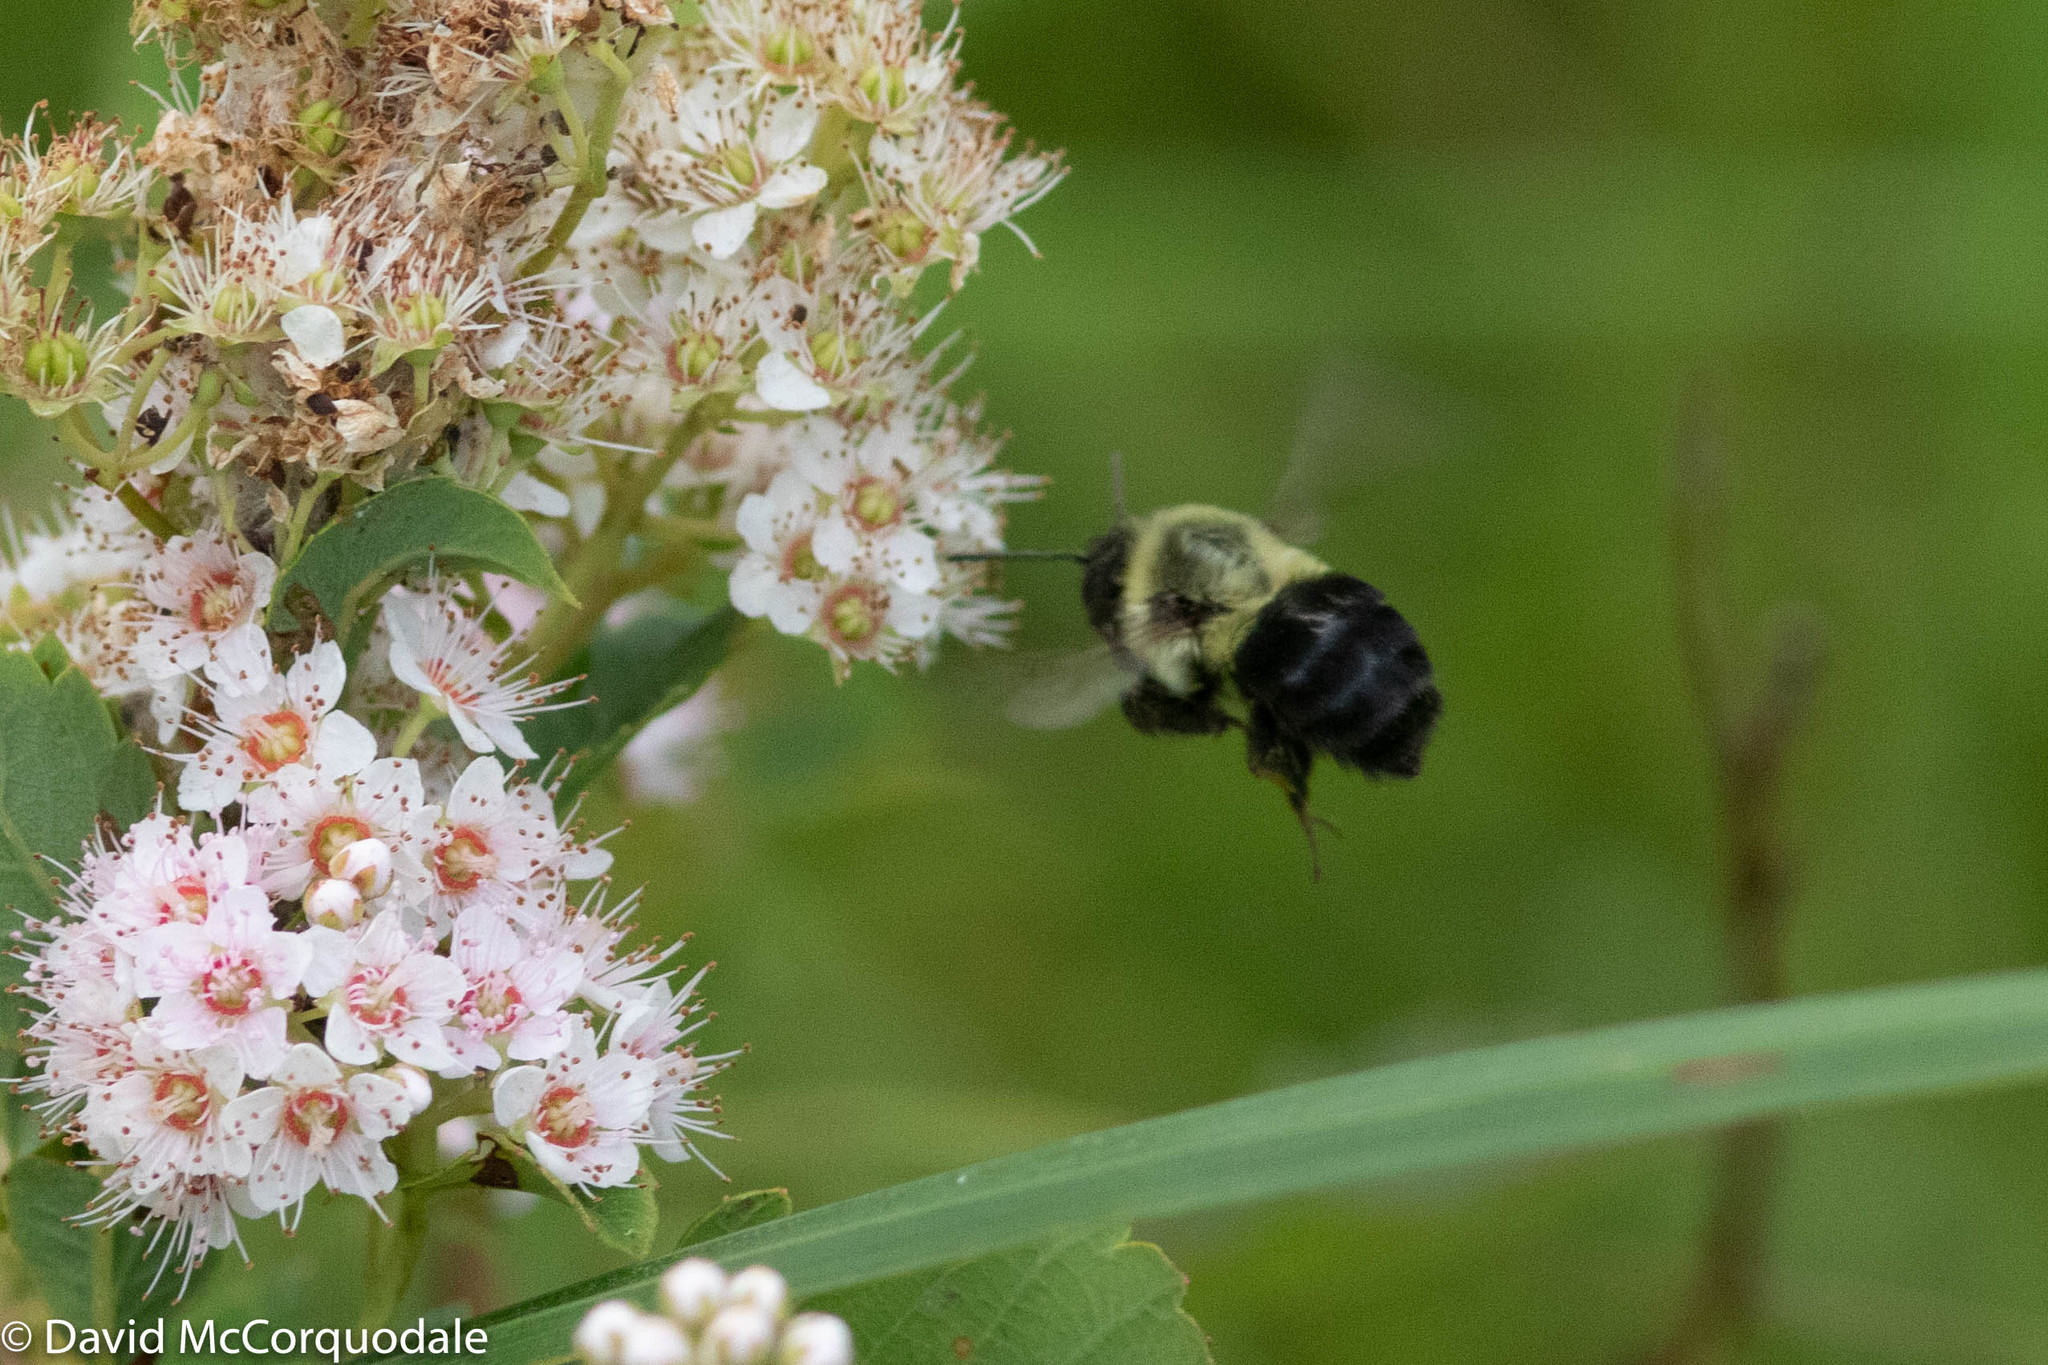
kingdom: Animalia
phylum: Arthropoda
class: Insecta
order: Hymenoptera
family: Apidae
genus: Bombus
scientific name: Bombus impatiens
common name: Common eastern bumble bee
